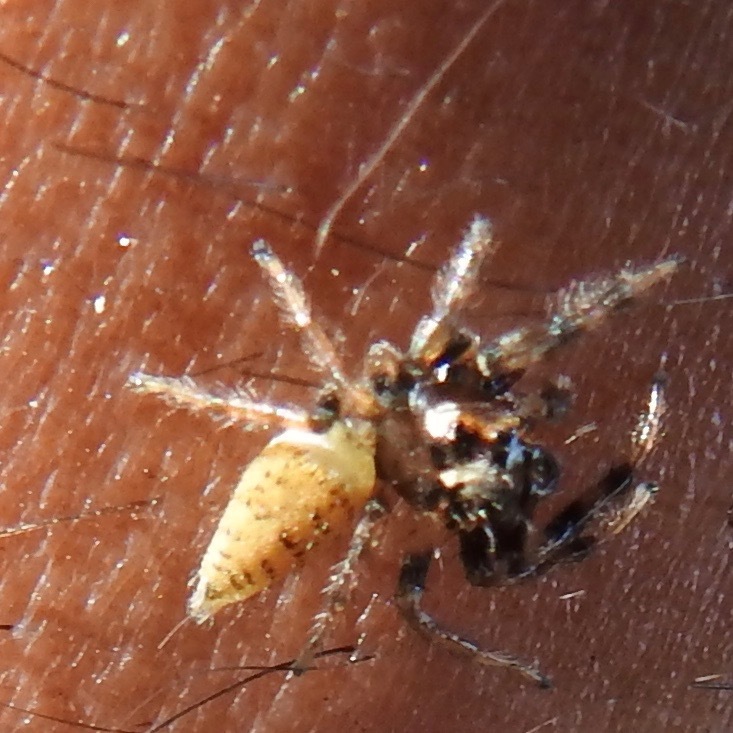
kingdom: Animalia
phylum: Arthropoda
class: Arachnida
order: Araneae
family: Salticidae
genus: Colonus
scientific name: Colonus hesperus
